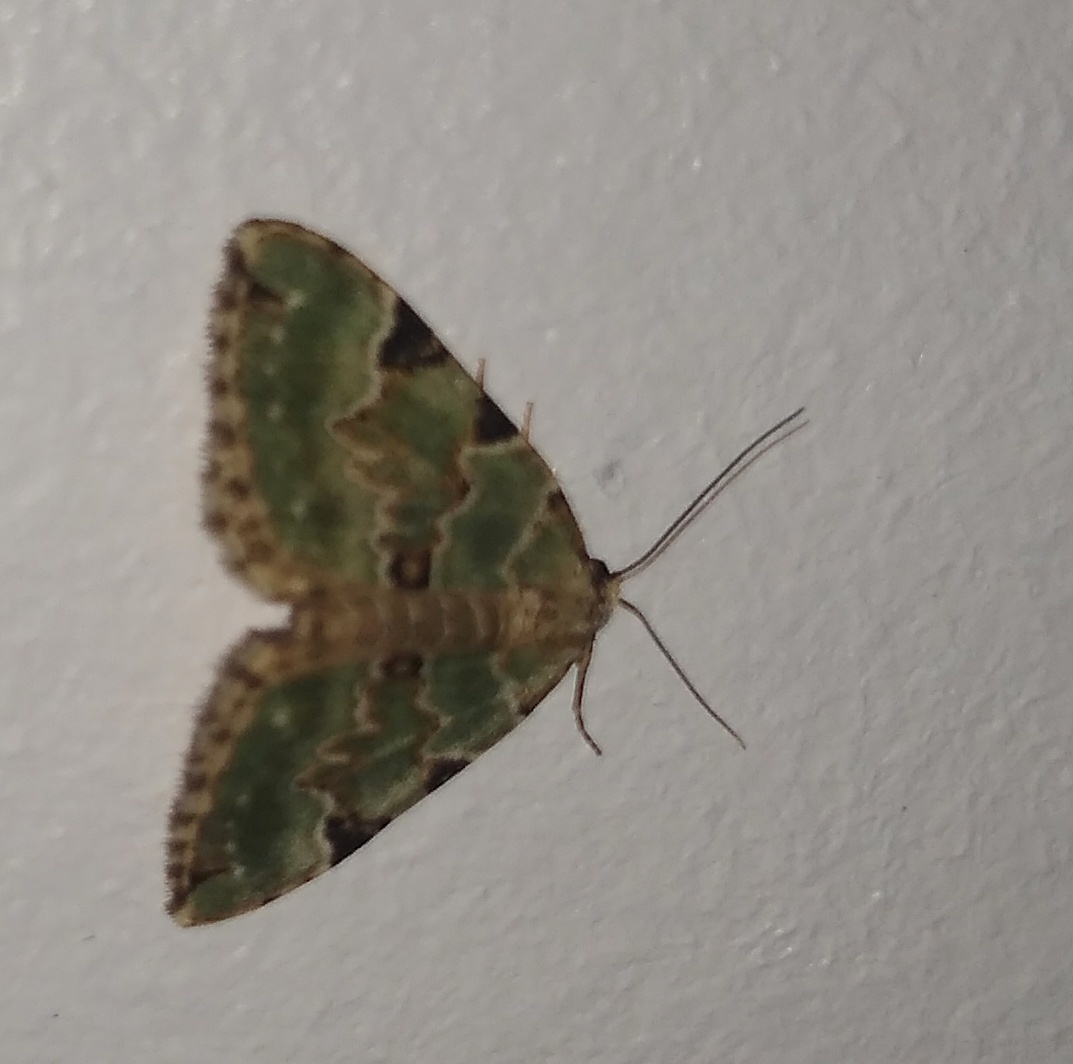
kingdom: Animalia
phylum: Arthropoda
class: Insecta
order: Lepidoptera
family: Geometridae
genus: Colostygia
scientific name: Colostygia pectinataria
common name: Green carpet
